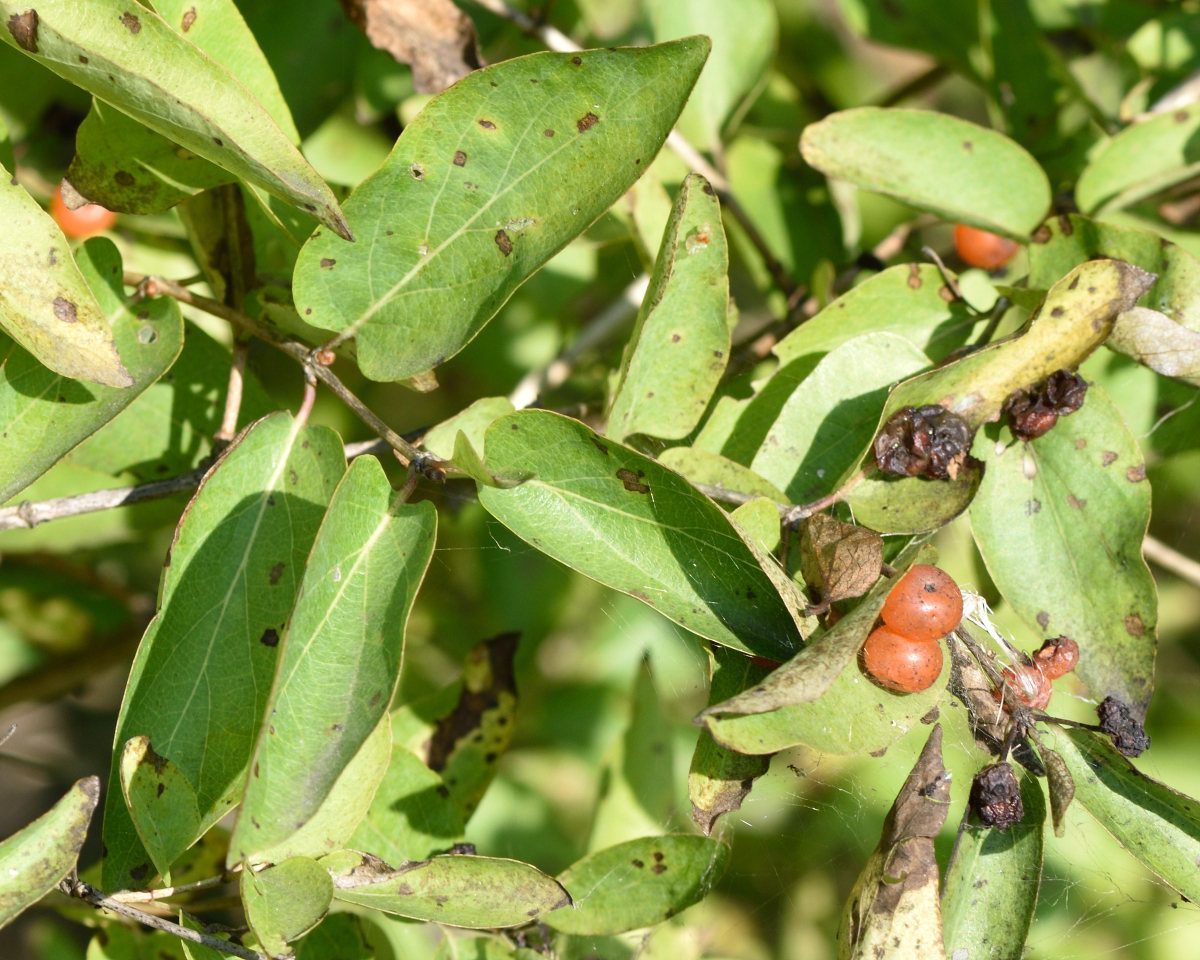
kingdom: Plantae
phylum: Tracheophyta
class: Magnoliopsida
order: Dipsacales
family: Caprifoliaceae
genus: Lonicera
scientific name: Lonicera tatarica
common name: Tatarian honeysuckle
